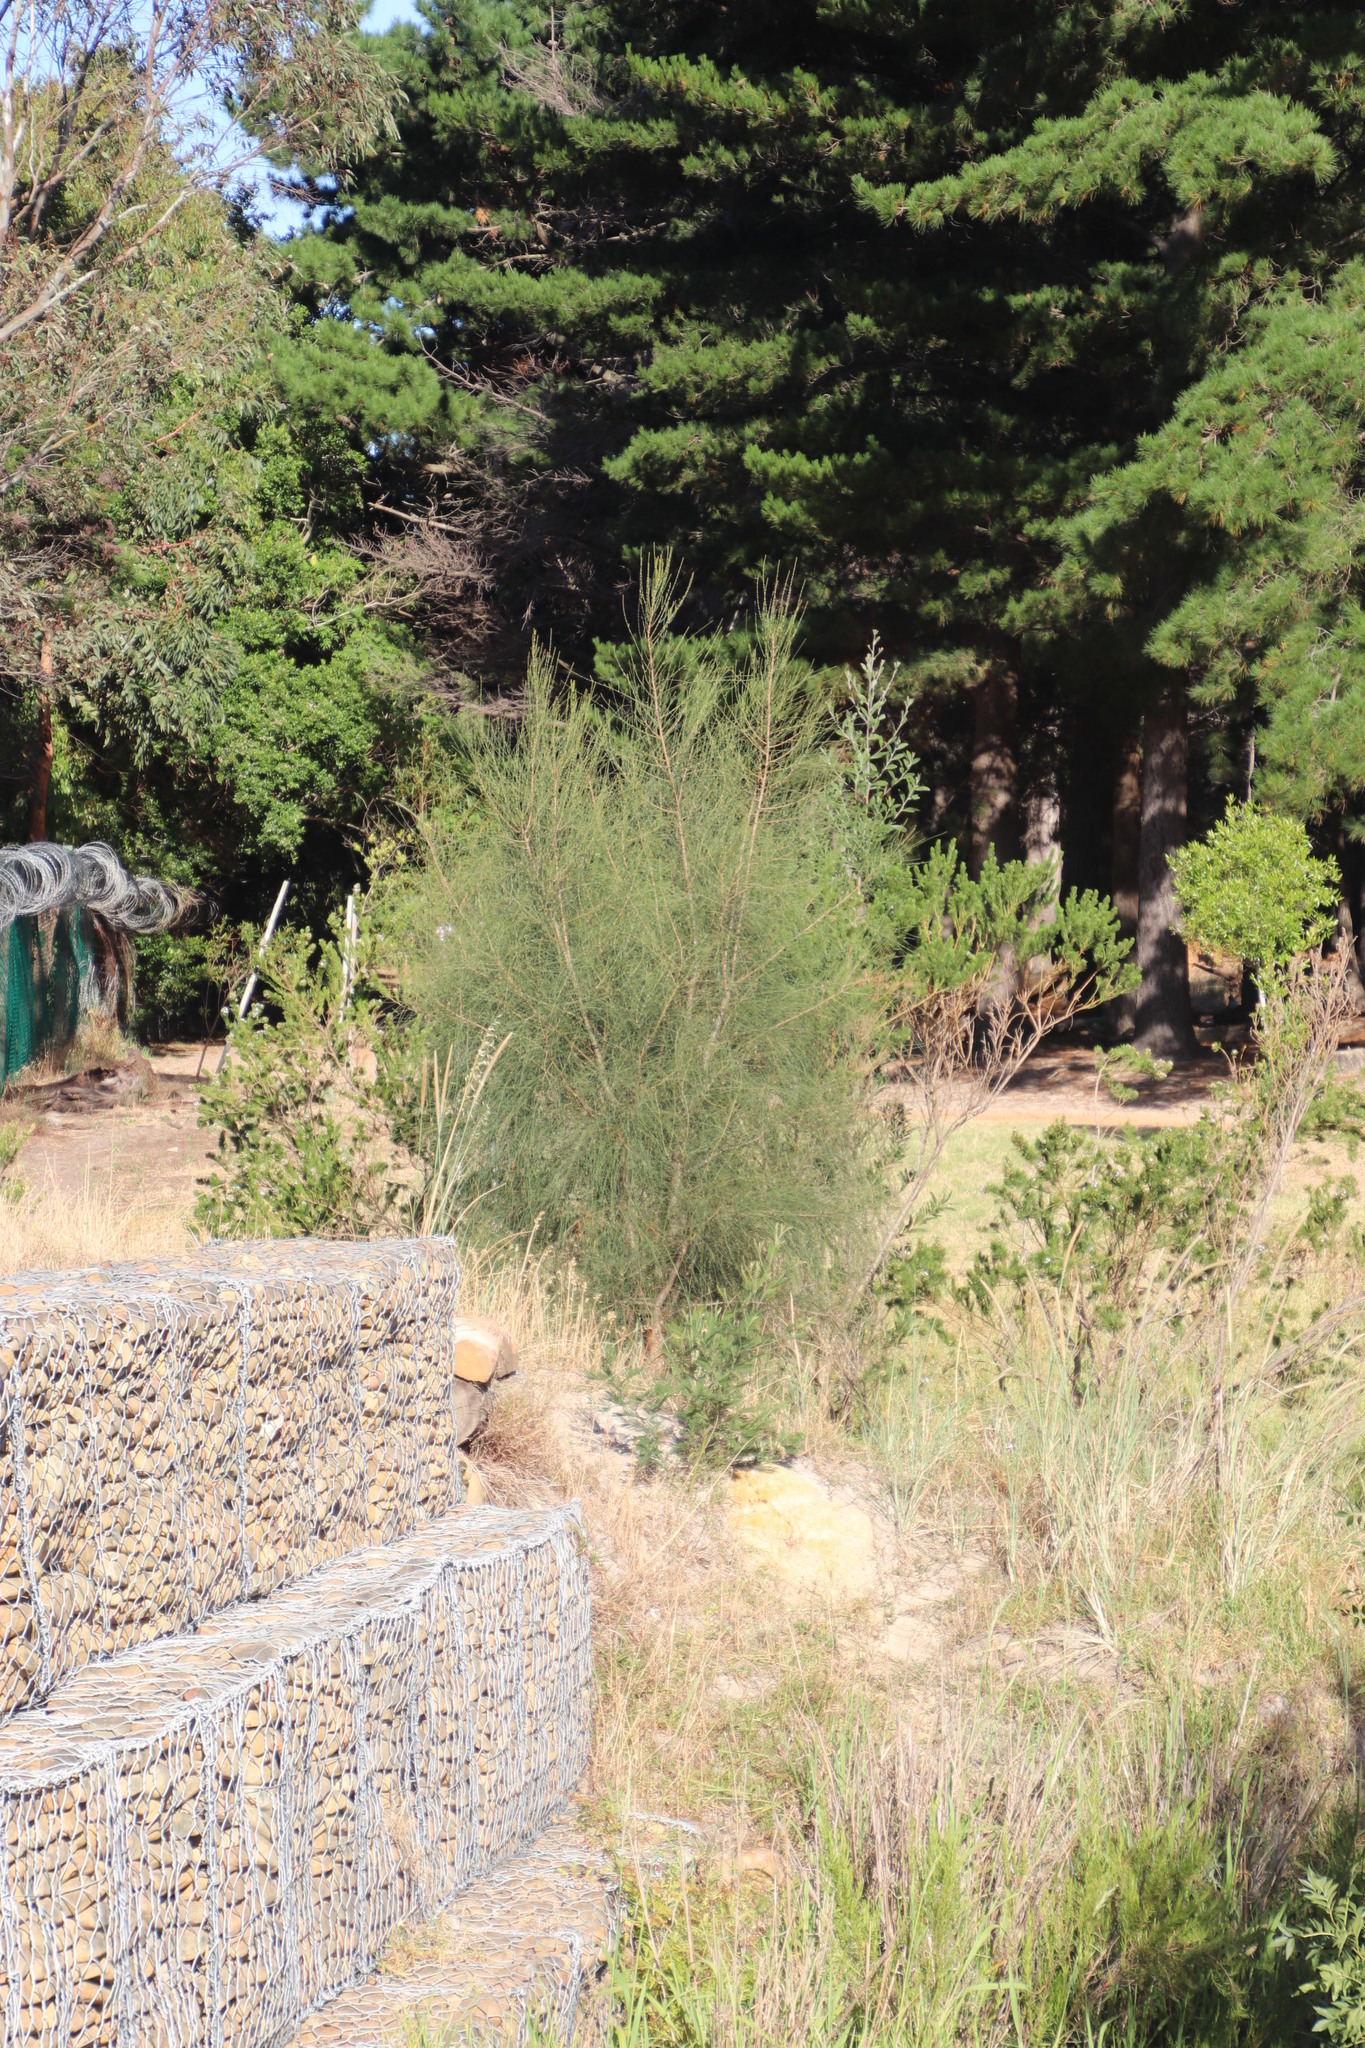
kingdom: Plantae
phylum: Tracheophyta
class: Magnoliopsida
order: Fagales
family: Casuarinaceae
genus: Casuarina
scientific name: Casuarina cunninghamiana
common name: River sheoak
